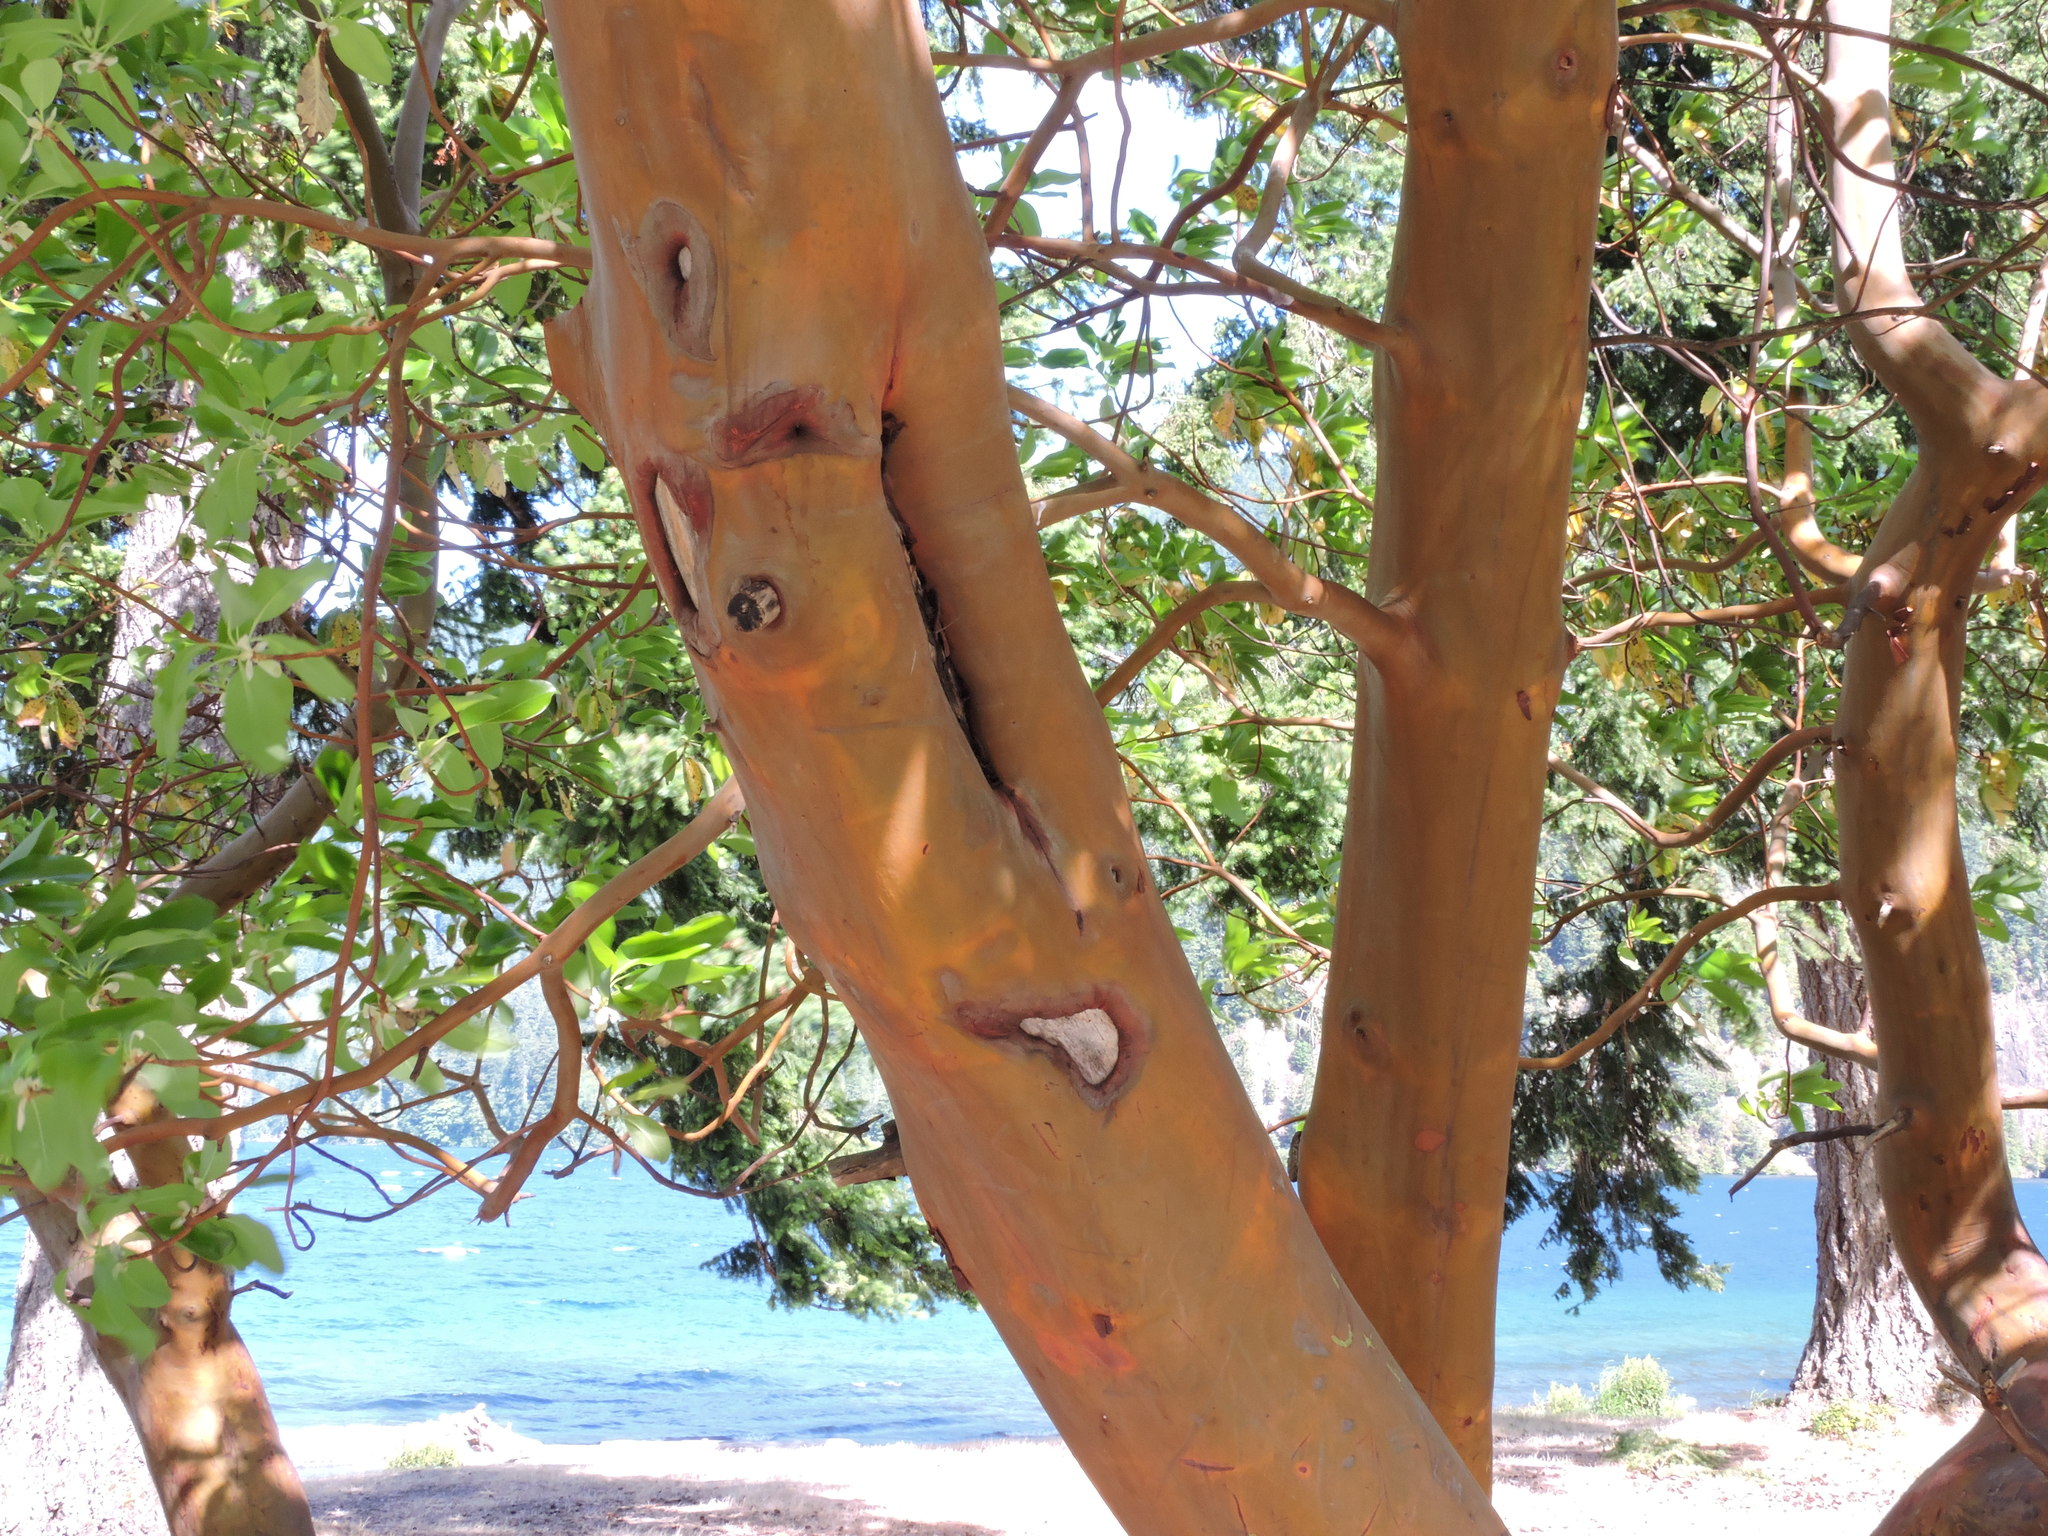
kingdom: Plantae
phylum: Tracheophyta
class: Magnoliopsida
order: Ericales
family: Ericaceae
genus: Arbutus
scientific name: Arbutus menziesii
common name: Pacific madrone
